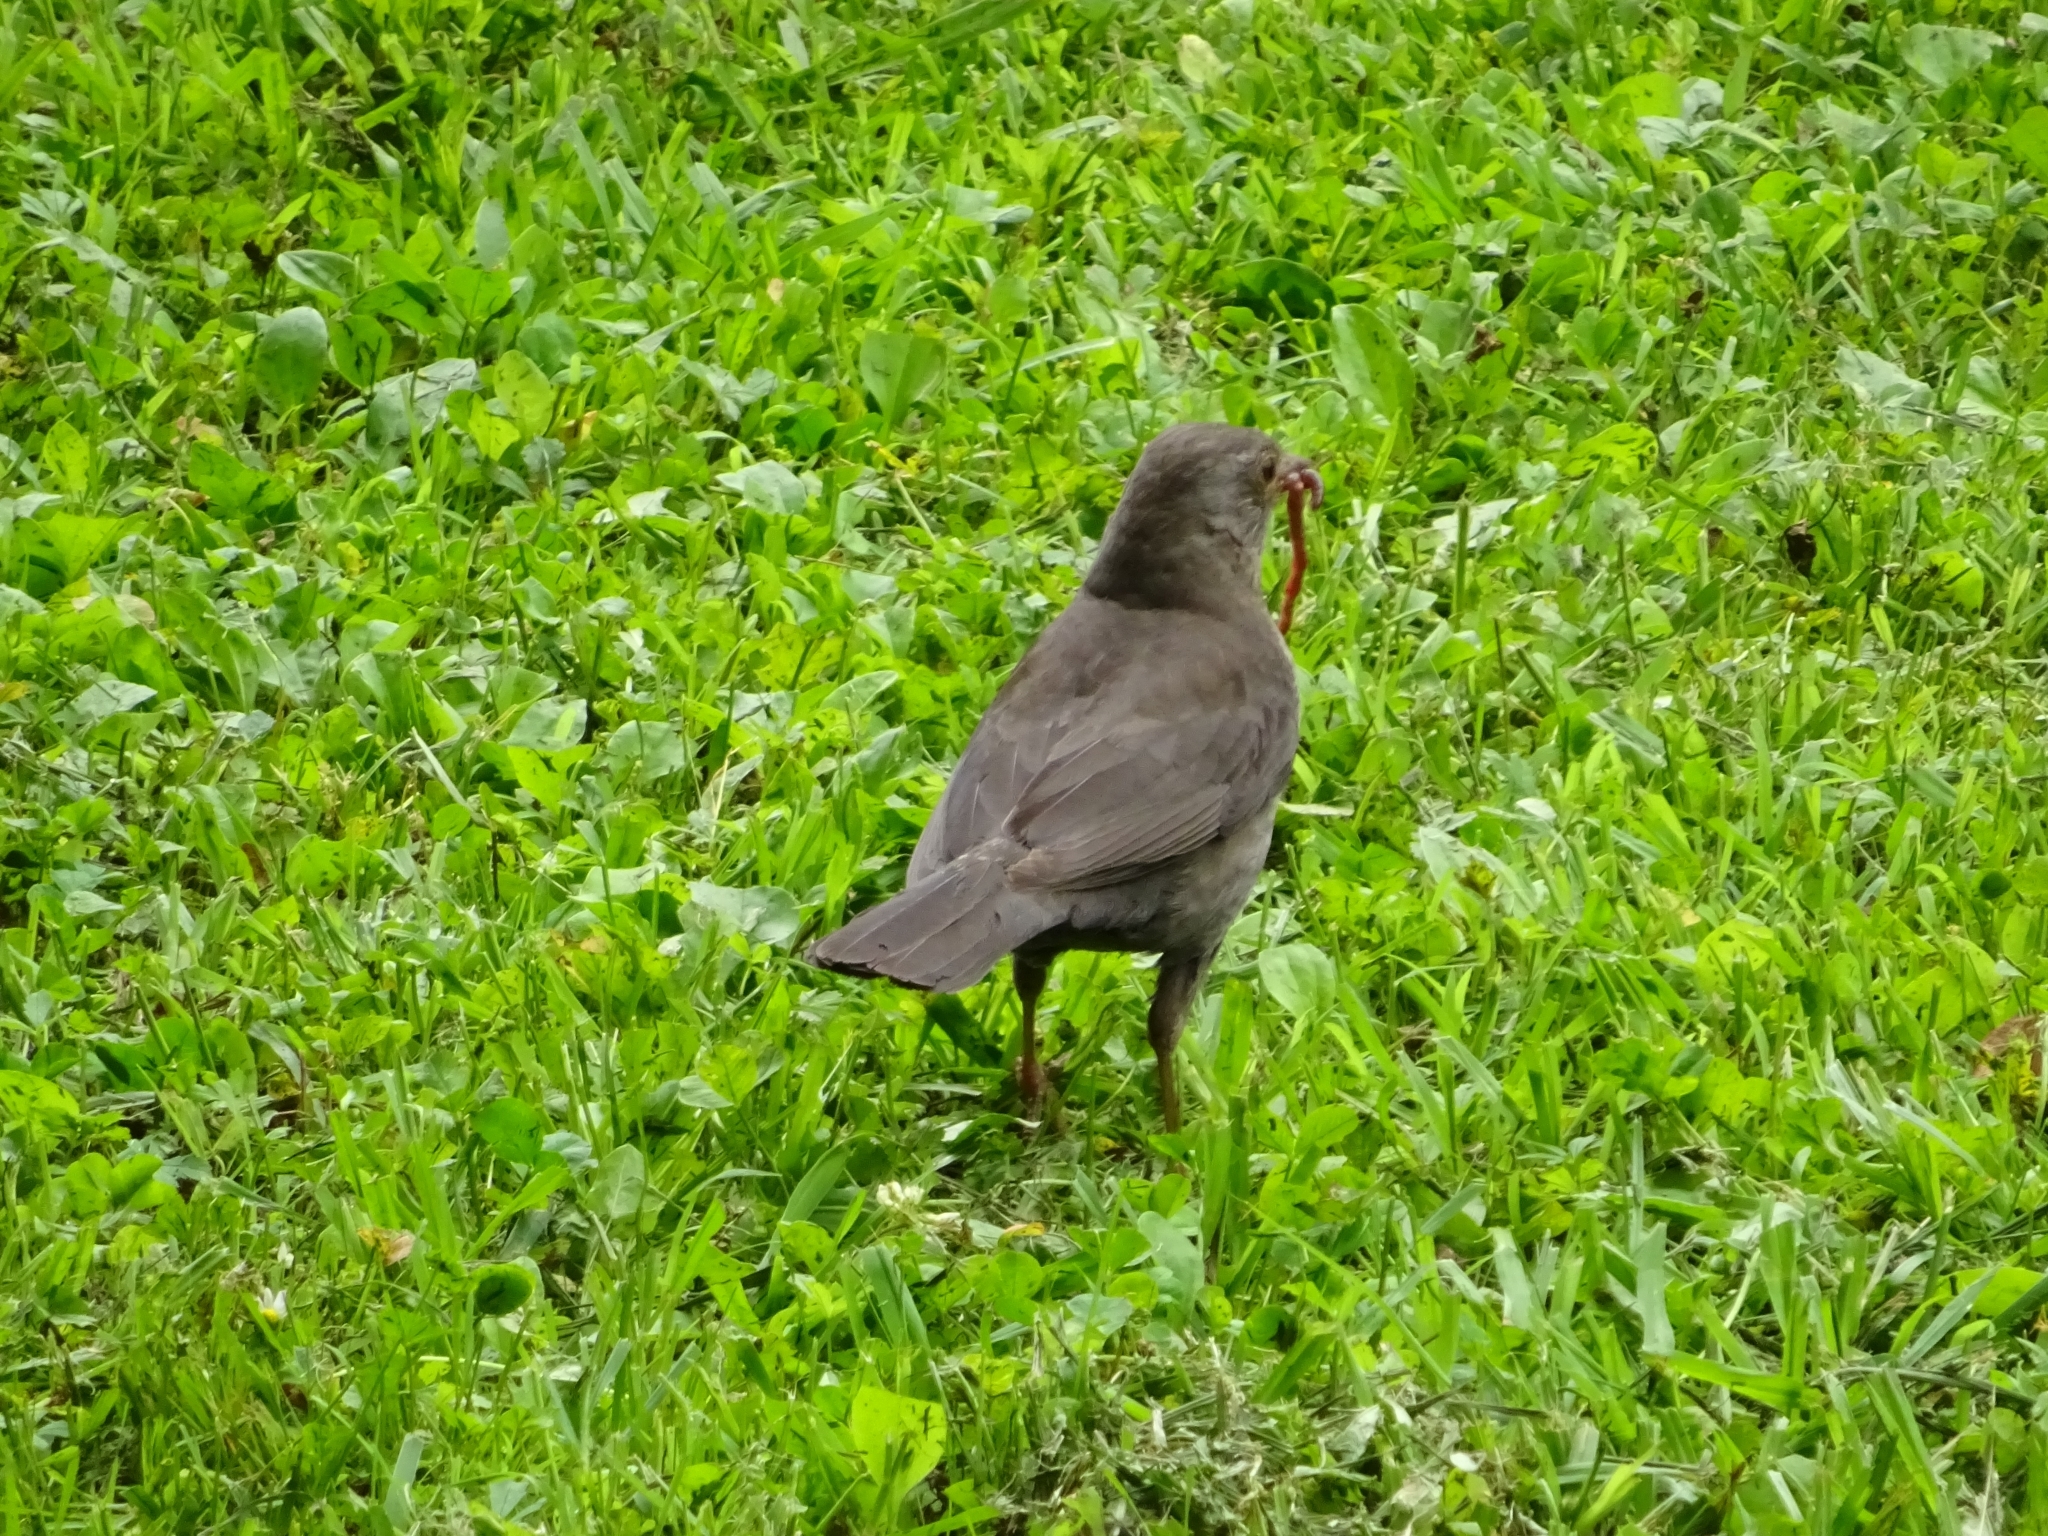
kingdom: Animalia
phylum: Chordata
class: Aves
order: Passeriformes
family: Turdidae
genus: Turdus
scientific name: Turdus merula
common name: Common blackbird
